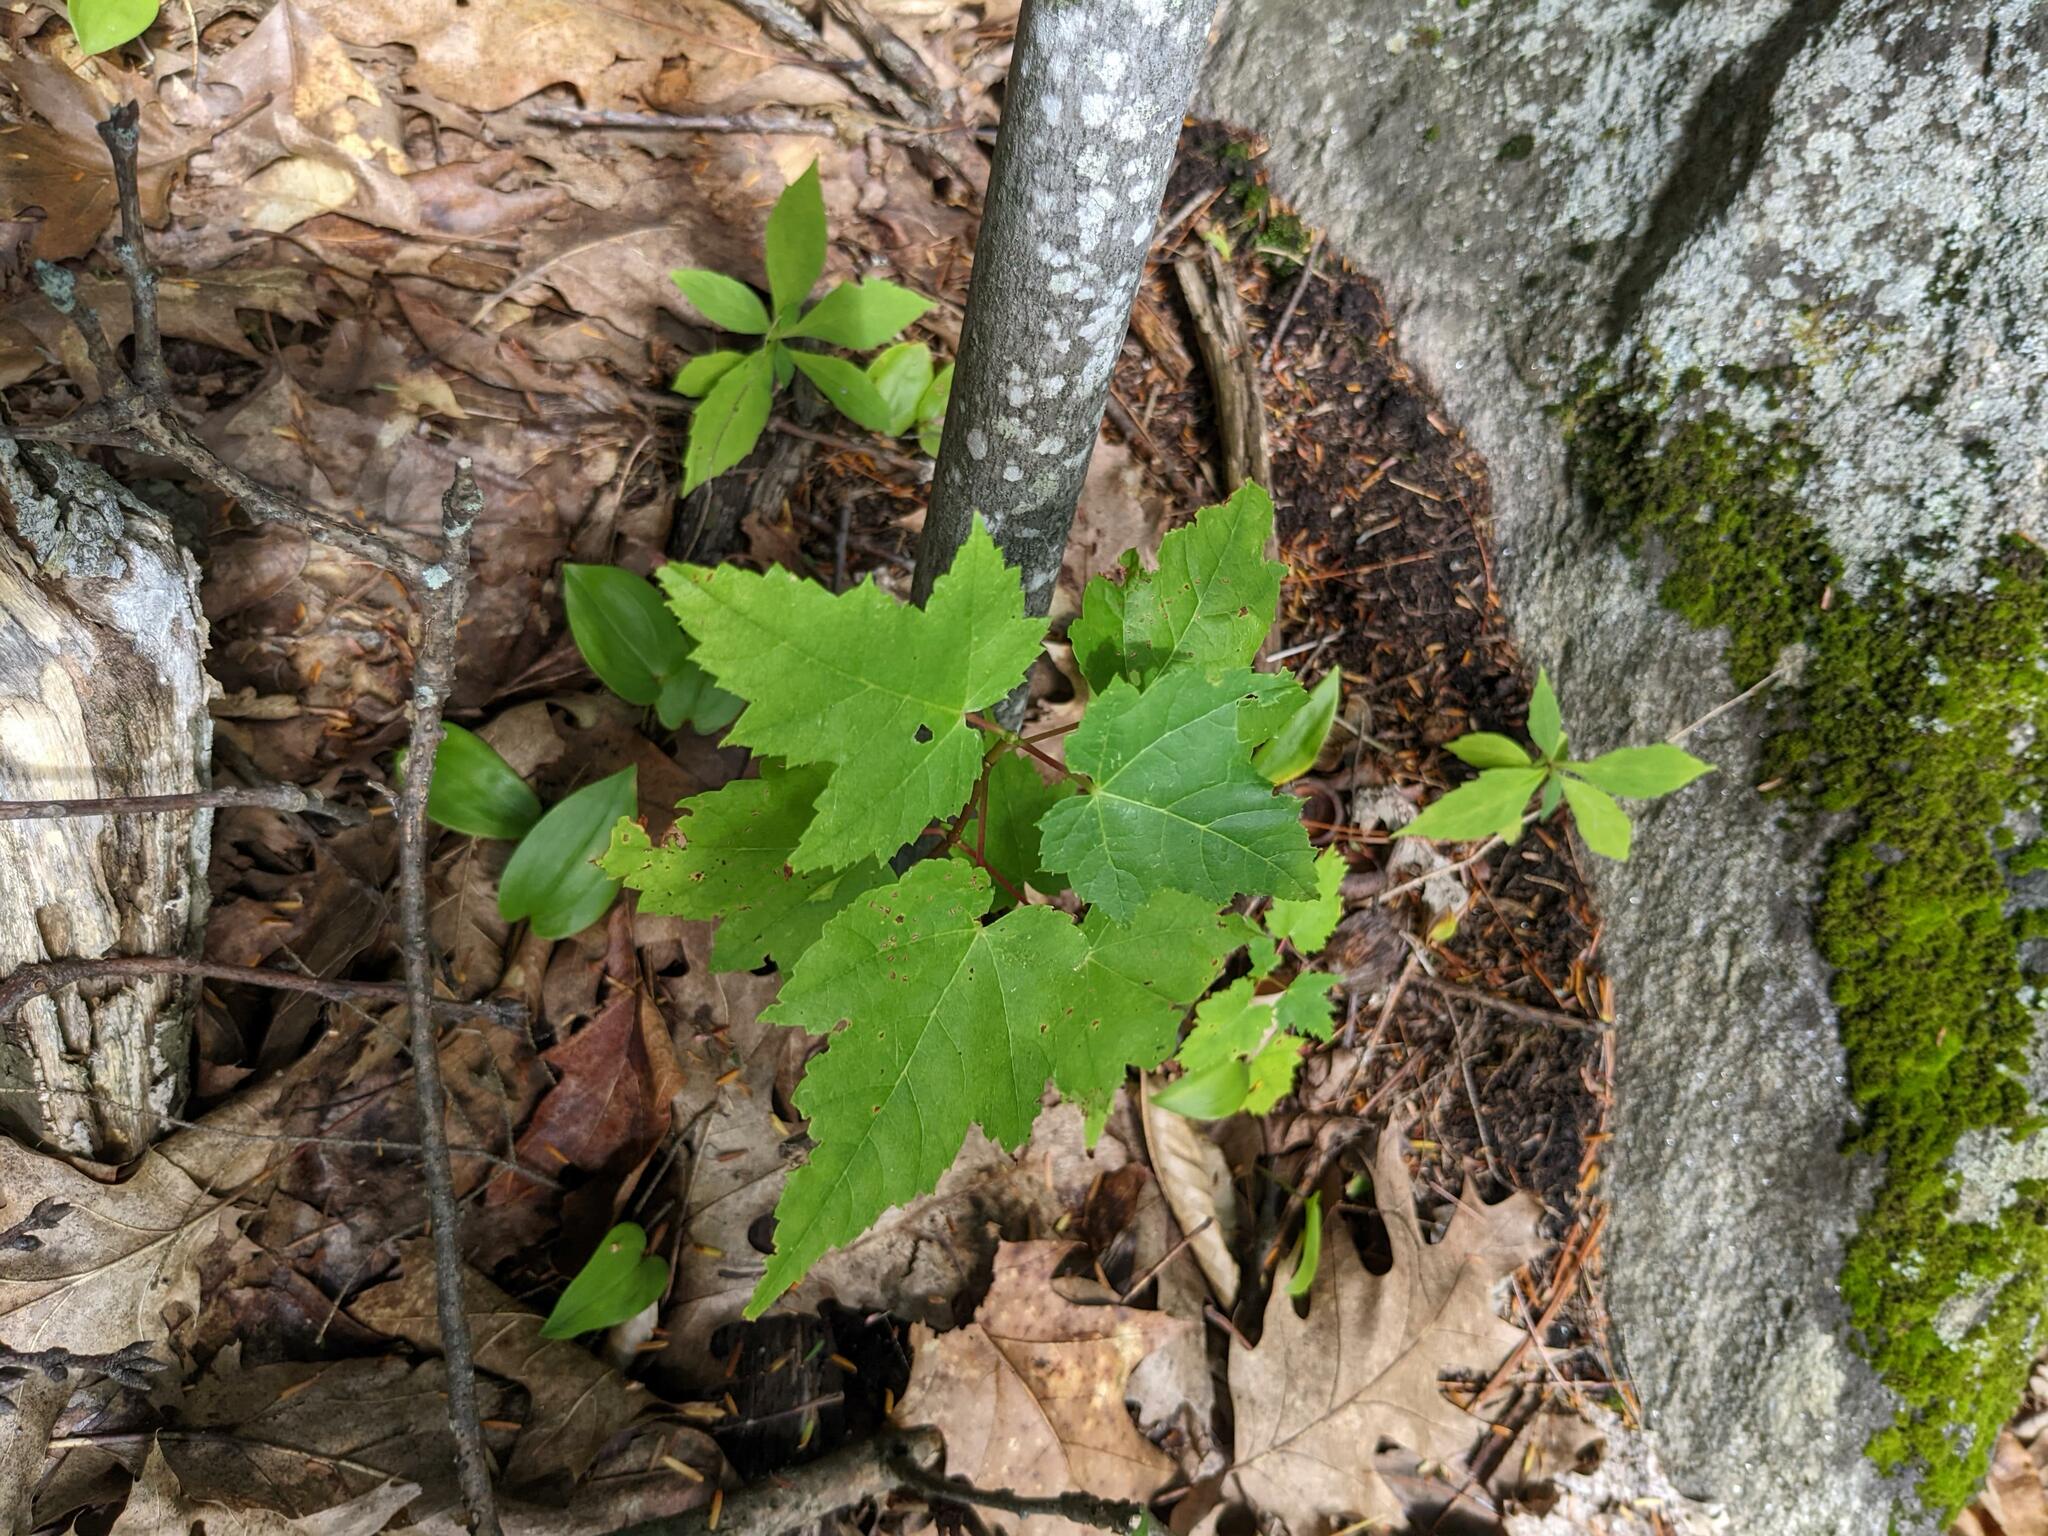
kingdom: Plantae
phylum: Tracheophyta
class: Magnoliopsida
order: Sapindales
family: Sapindaceae
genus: Acer
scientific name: Acer rubrum
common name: Red maple
